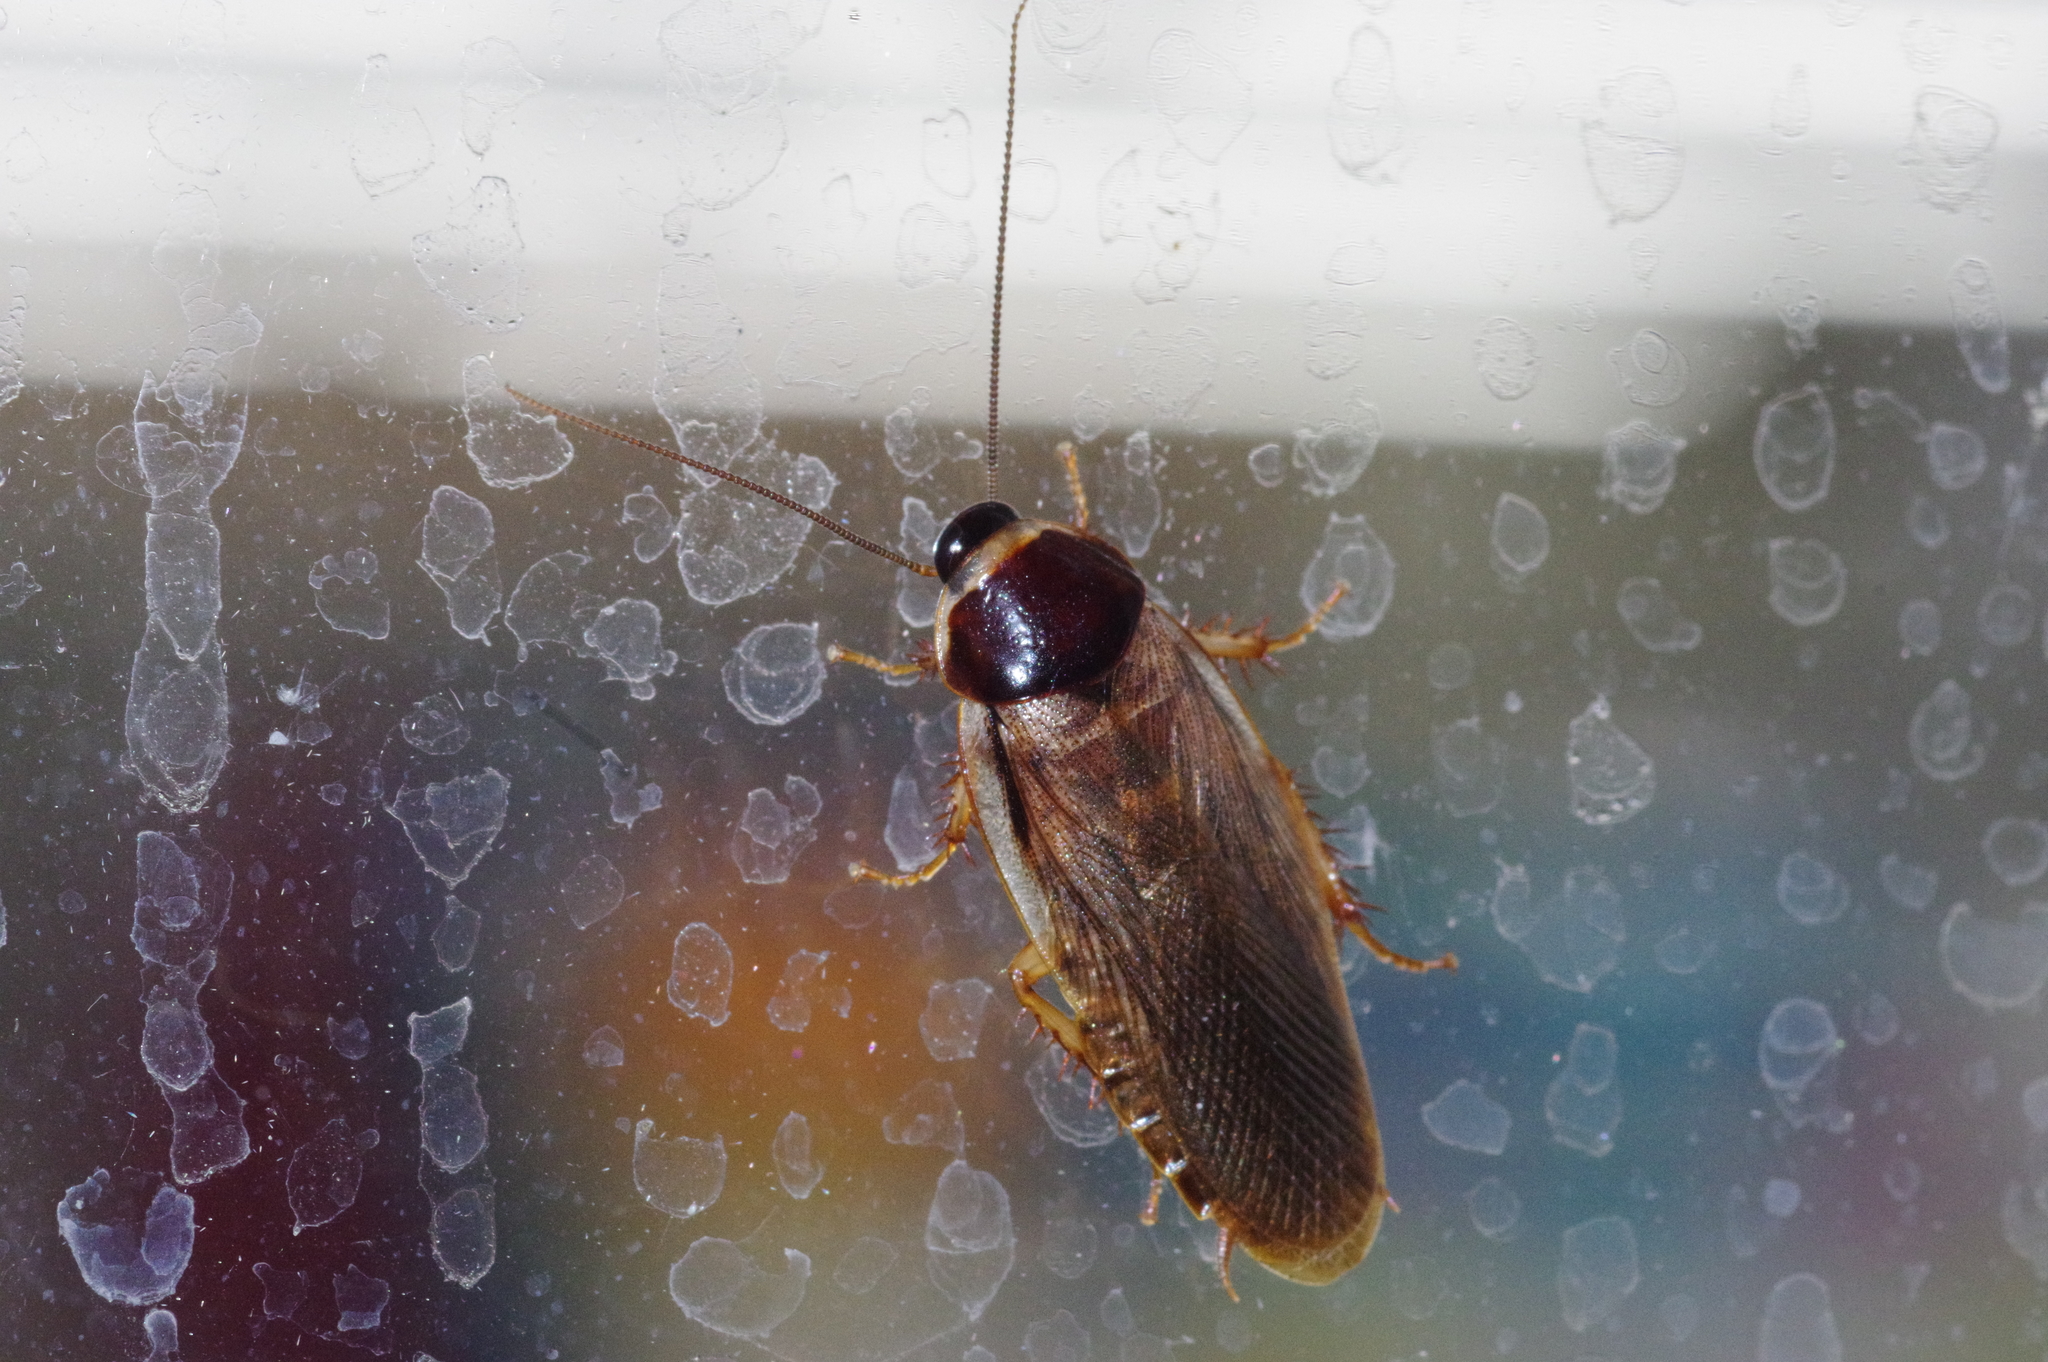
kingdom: Animalia
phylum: Arthropoda
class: Insecta
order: Blattodea
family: Blaberidae
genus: Pycnoscelus
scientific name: Pycnoscelus indicus
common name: Burrowing cockroach
